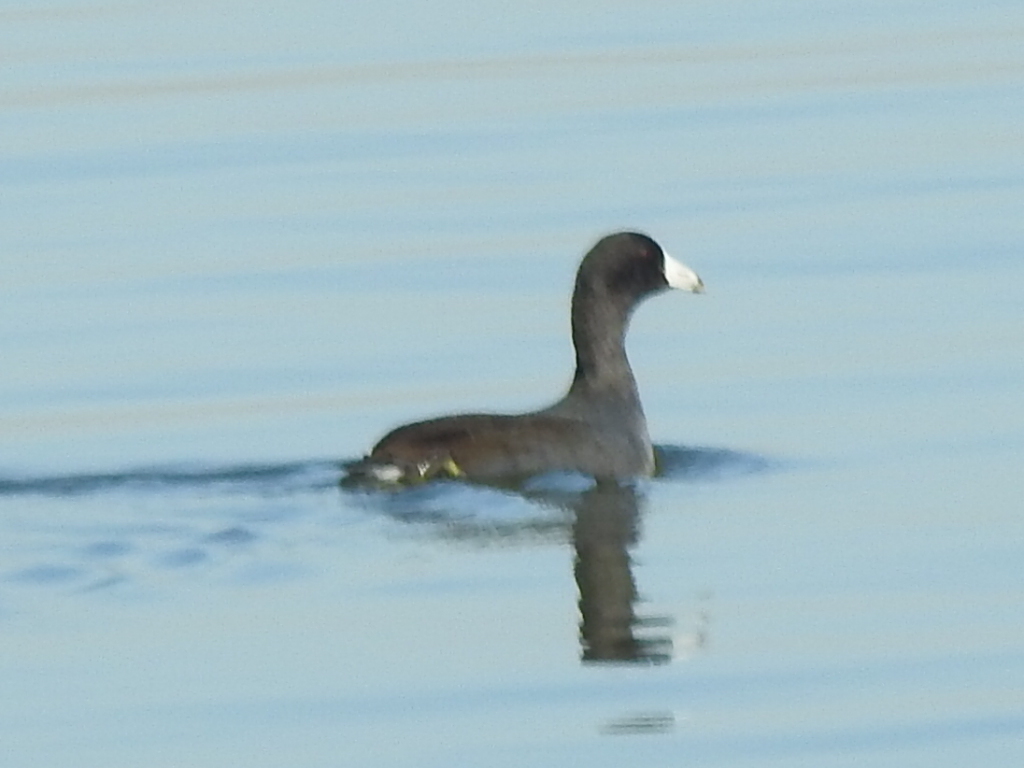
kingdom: Animalia
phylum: Chordata
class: Aves
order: Gruiformes
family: Rallidae
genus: Fulica
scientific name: Fulica americana
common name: American coot
